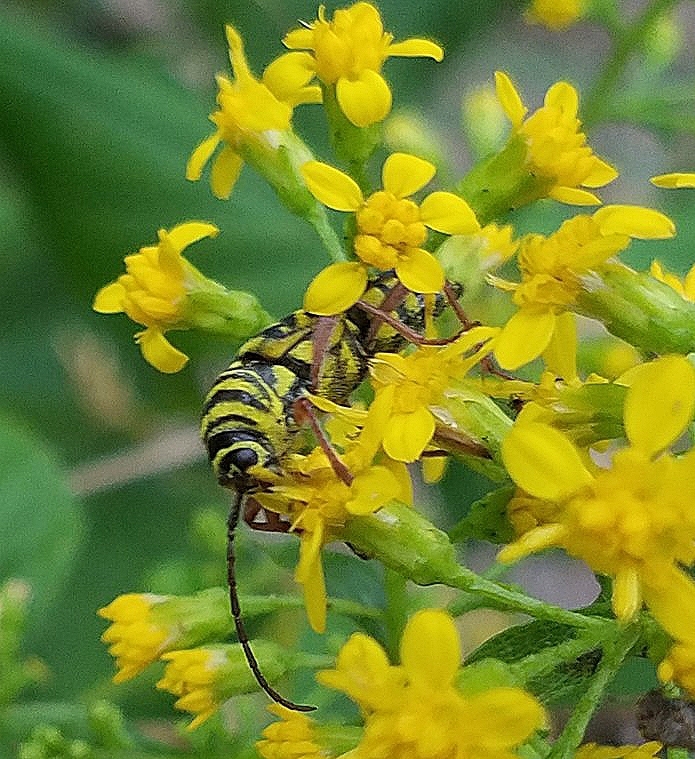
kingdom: Animalia
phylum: Arthropoda
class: Insecta
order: Coleoptera
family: Cerambycidae
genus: Megacyllene
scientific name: Megacyllene robiniae
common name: Locust borer
